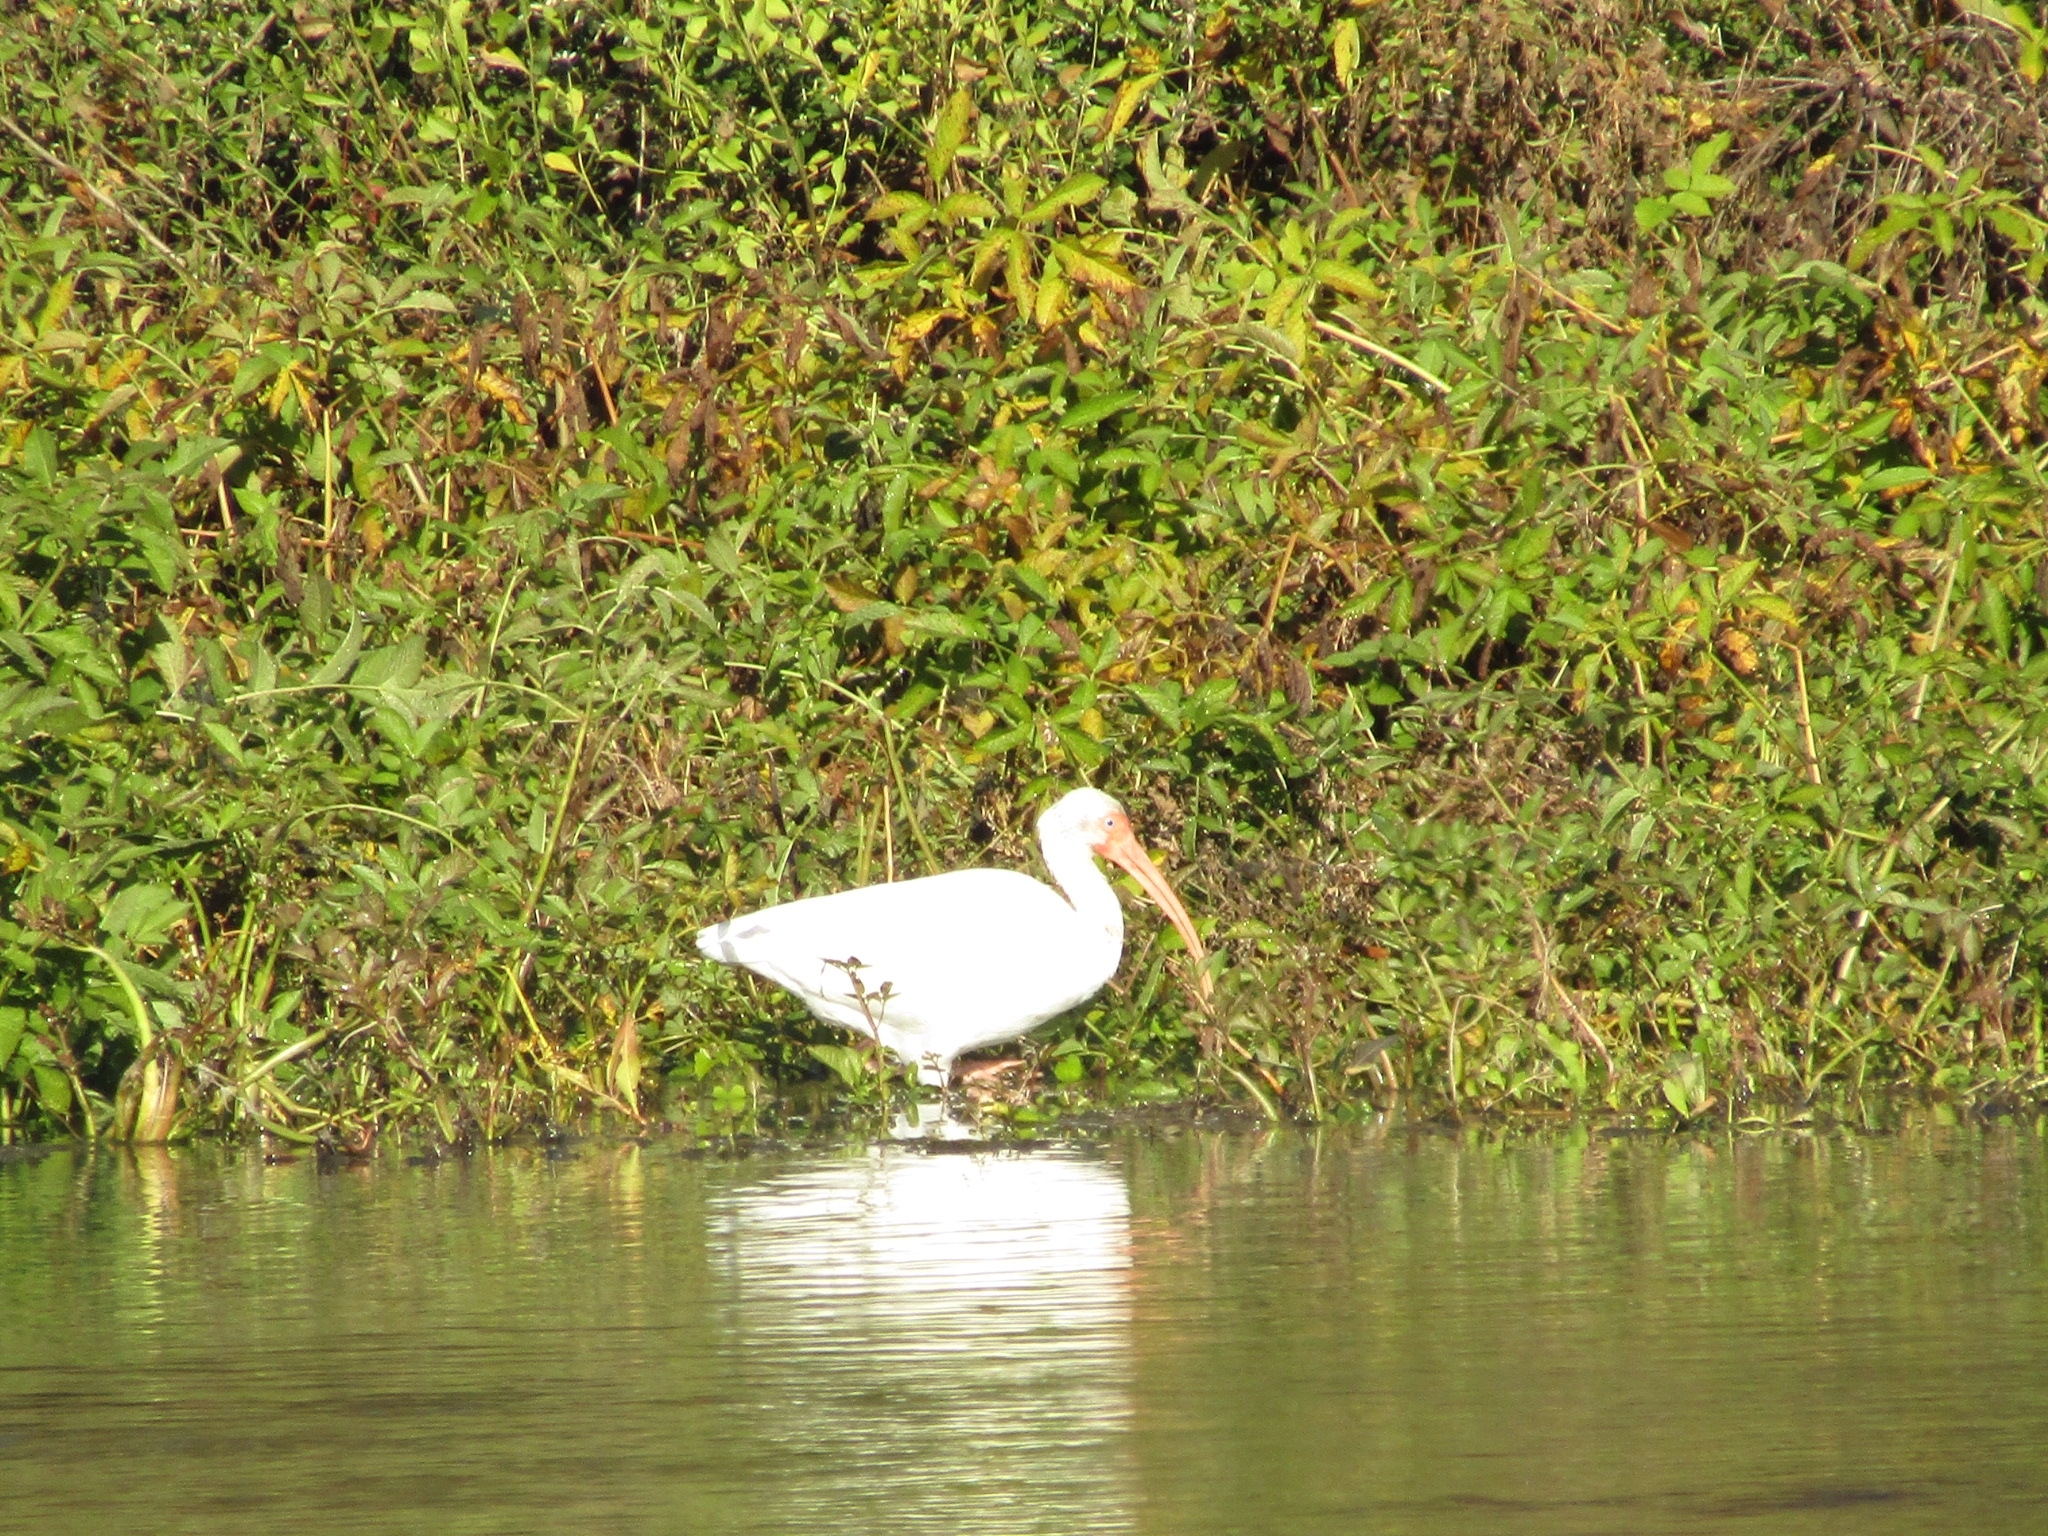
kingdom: Animalia
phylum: Chordata
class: Aves
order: Pelecaniformes
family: Threskiornithidae
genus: Eudocimus
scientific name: Eudocimus albus
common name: White ibis
